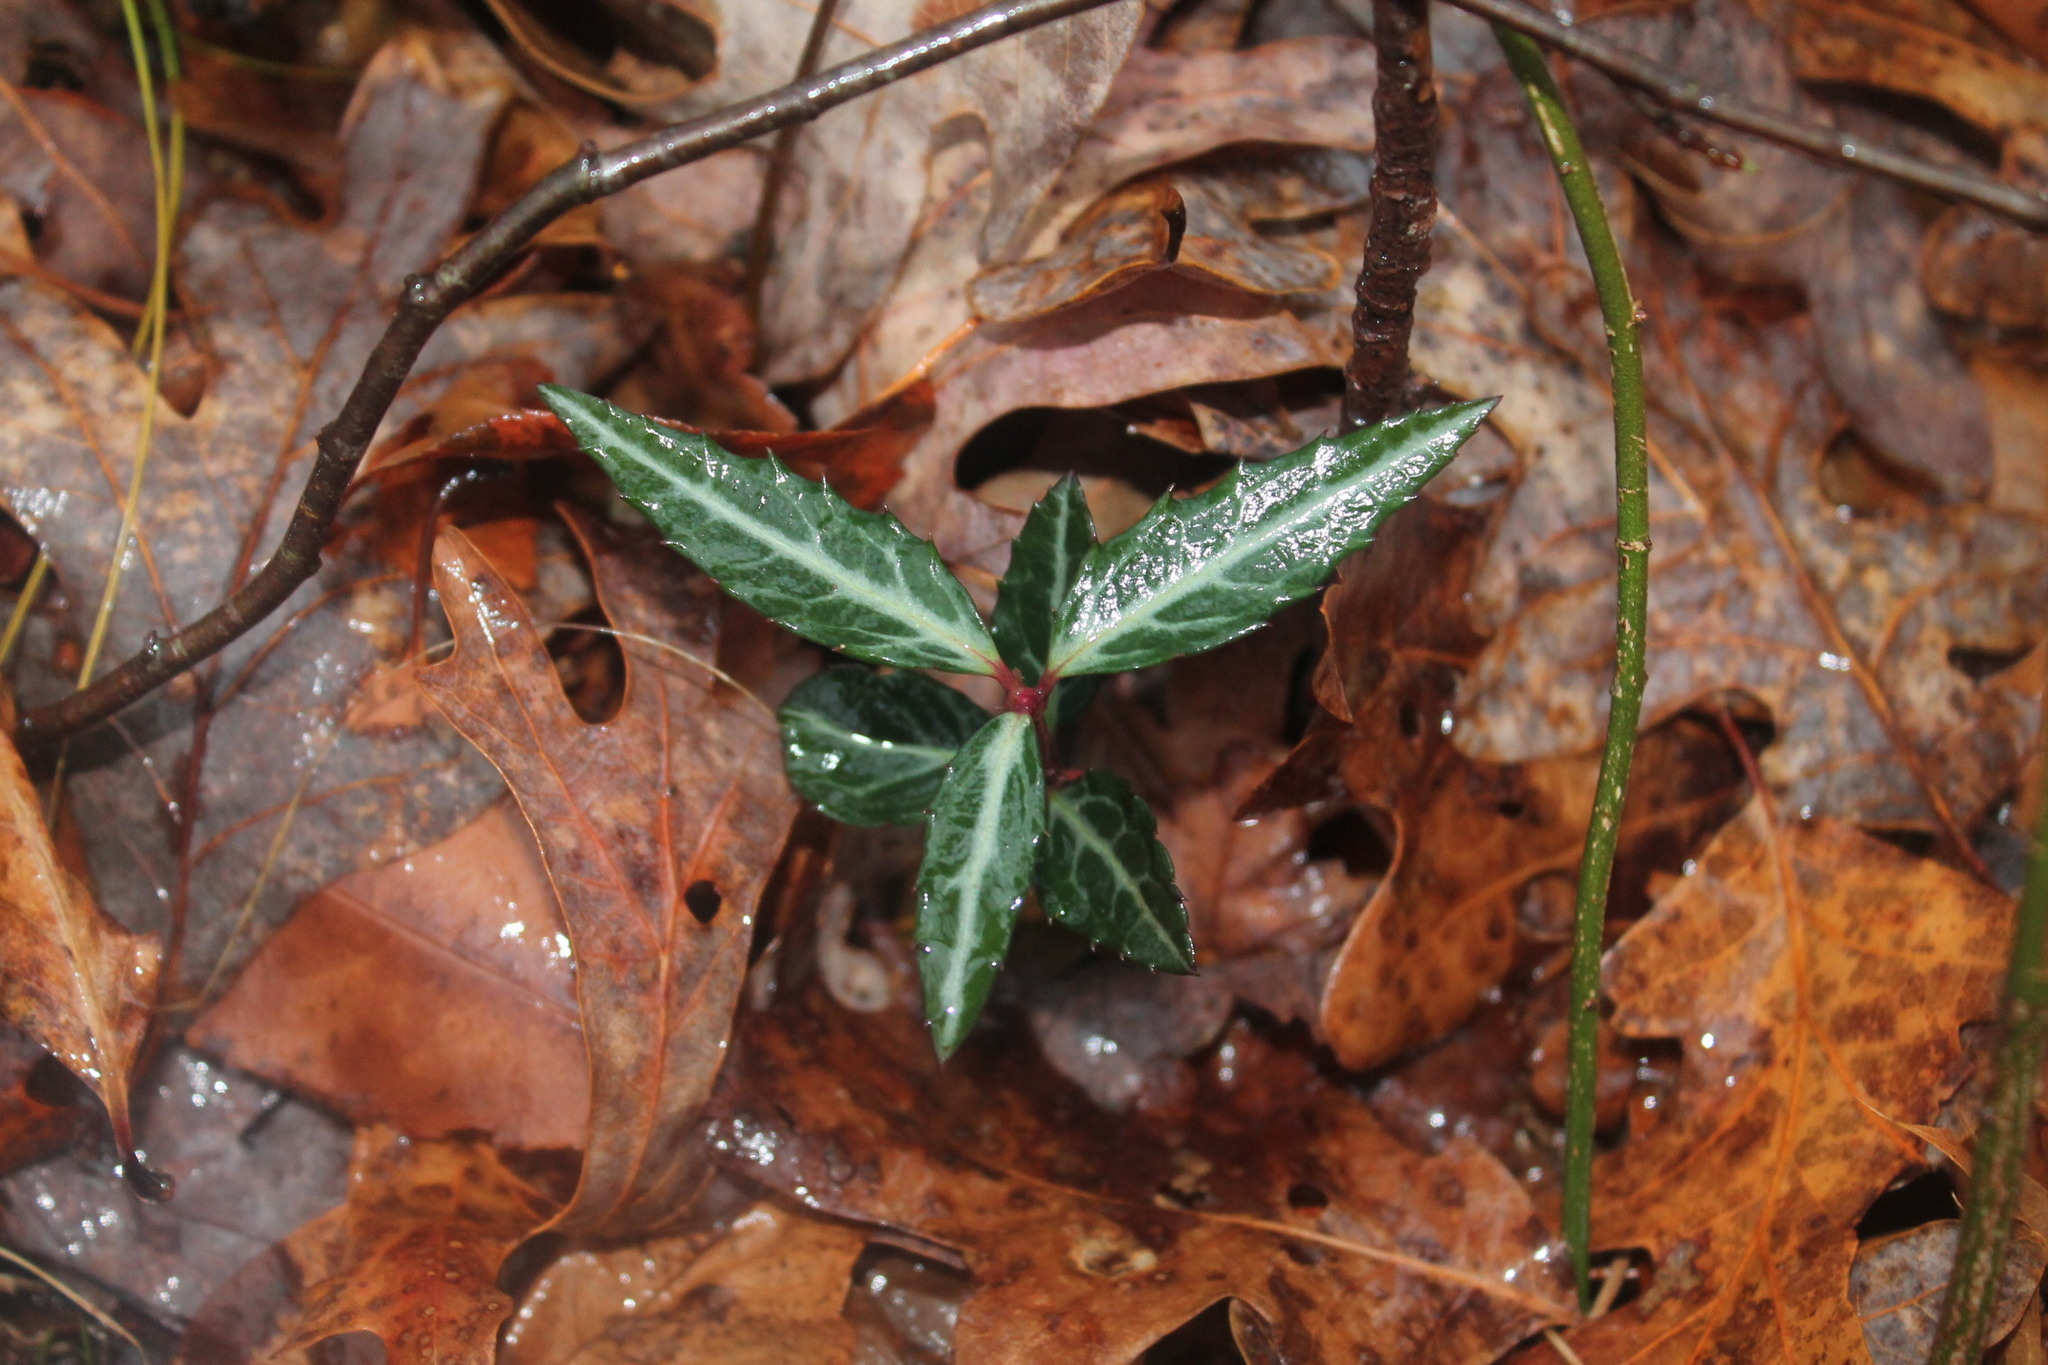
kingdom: Plantae
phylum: Tracheophyta
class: Magnoliopsida
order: Ericales
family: Ericaceae
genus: Chimaphila
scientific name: Chimaphila maculata
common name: Spotted pipsissewa
